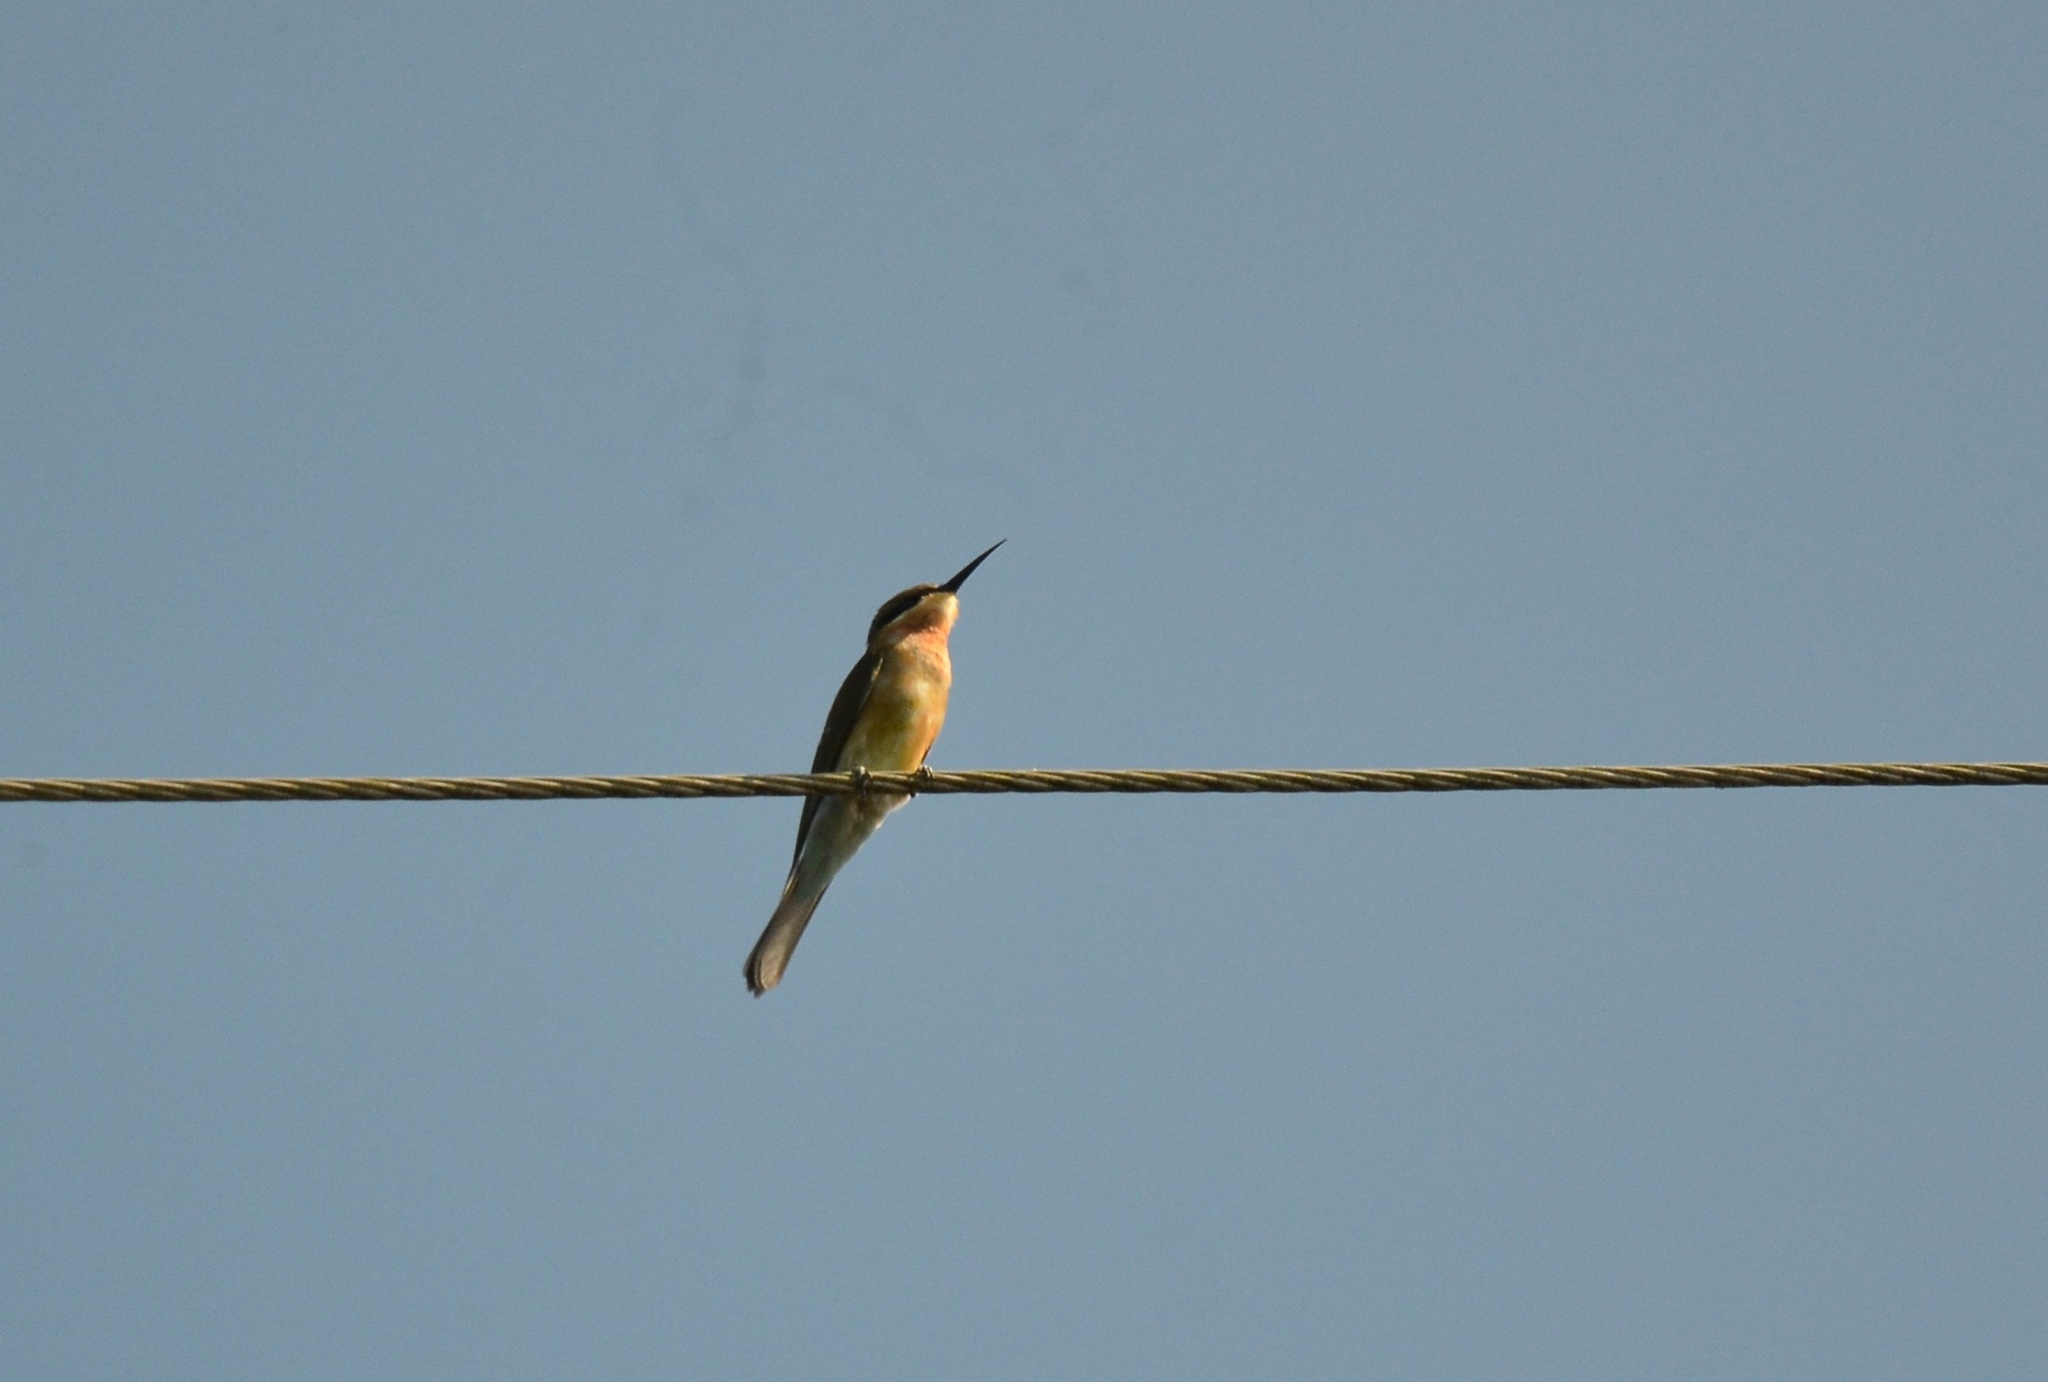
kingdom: Animalia
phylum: Chordata
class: Aves
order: Coraciiformes
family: Meropidae
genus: Merops
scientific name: Merops philippinus
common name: Blue-tailed bee-eater
